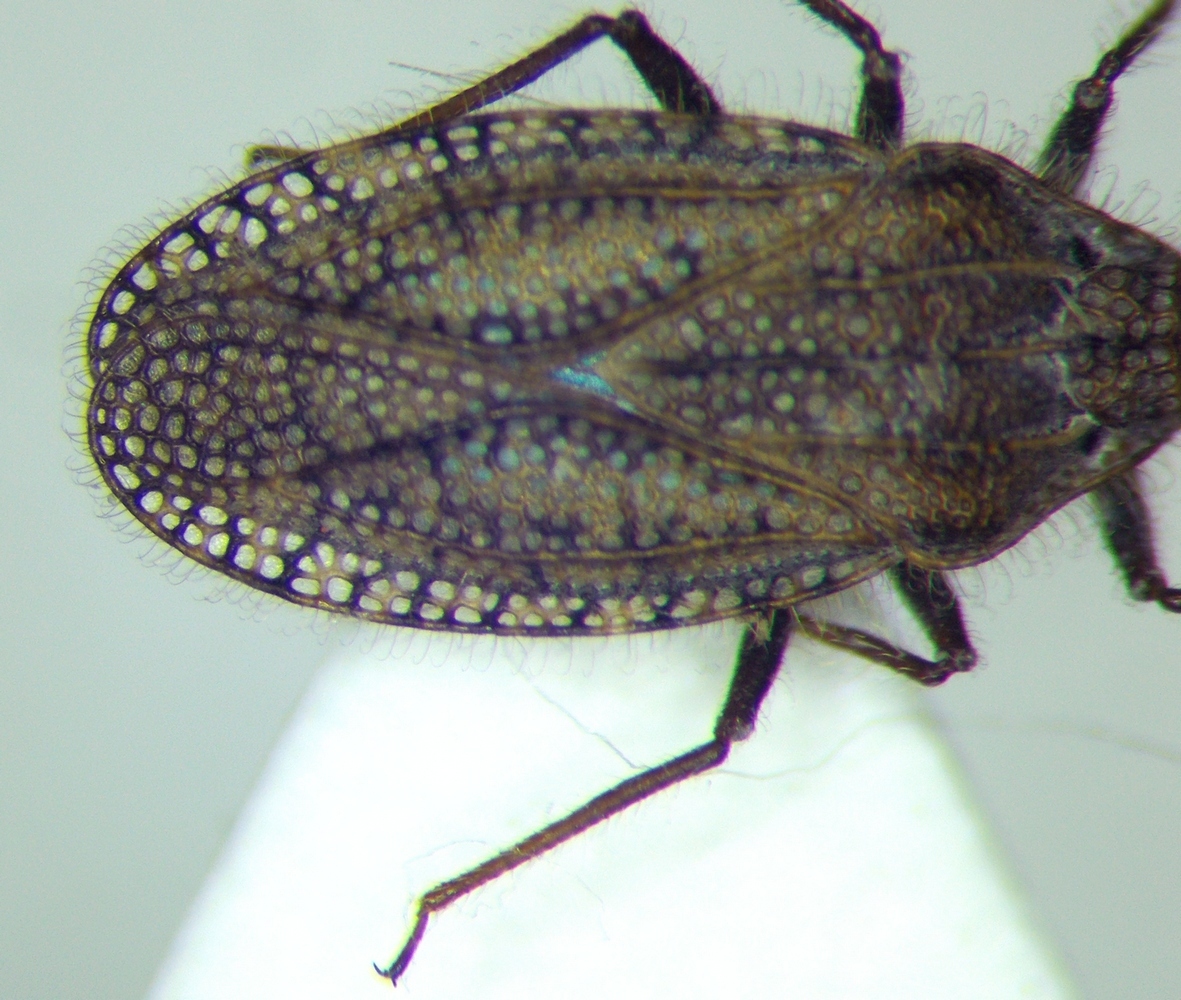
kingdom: Animalia
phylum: Arthropoda
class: Insecta
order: Hemiptera
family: Tingidae
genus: Tingis
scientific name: Tingis pilosa
